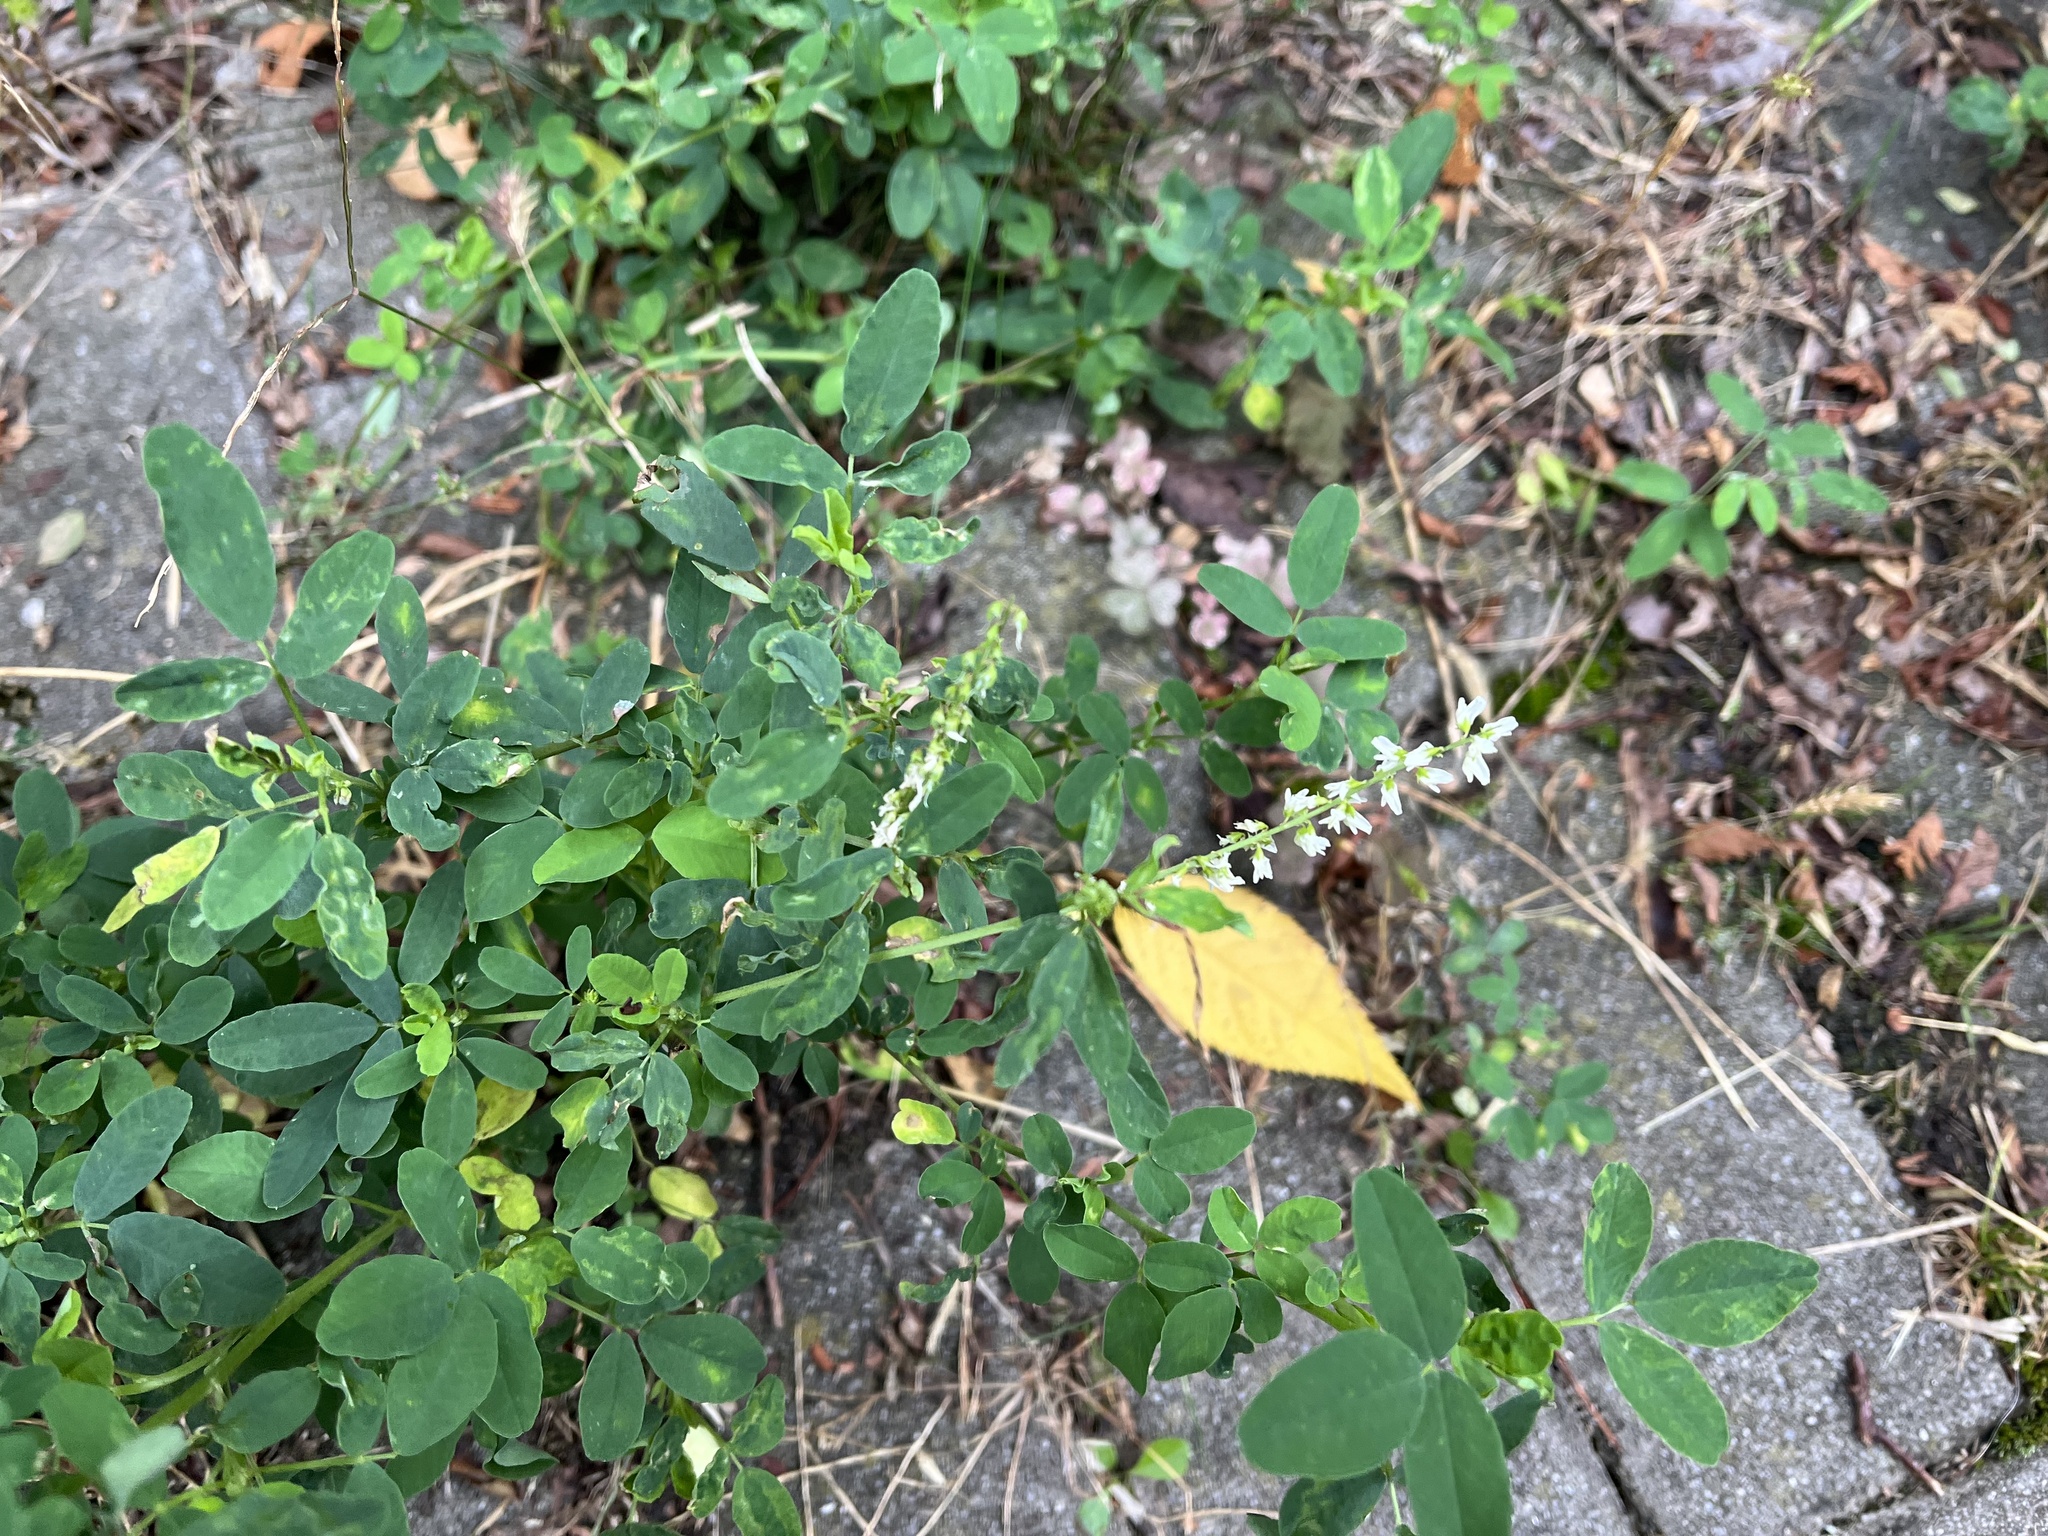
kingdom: Plantae
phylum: Tracheophyta
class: Magnoliopsida
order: Fabales
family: Fabaceae
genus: Melilotus
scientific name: Melilotus albus
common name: White melilot
